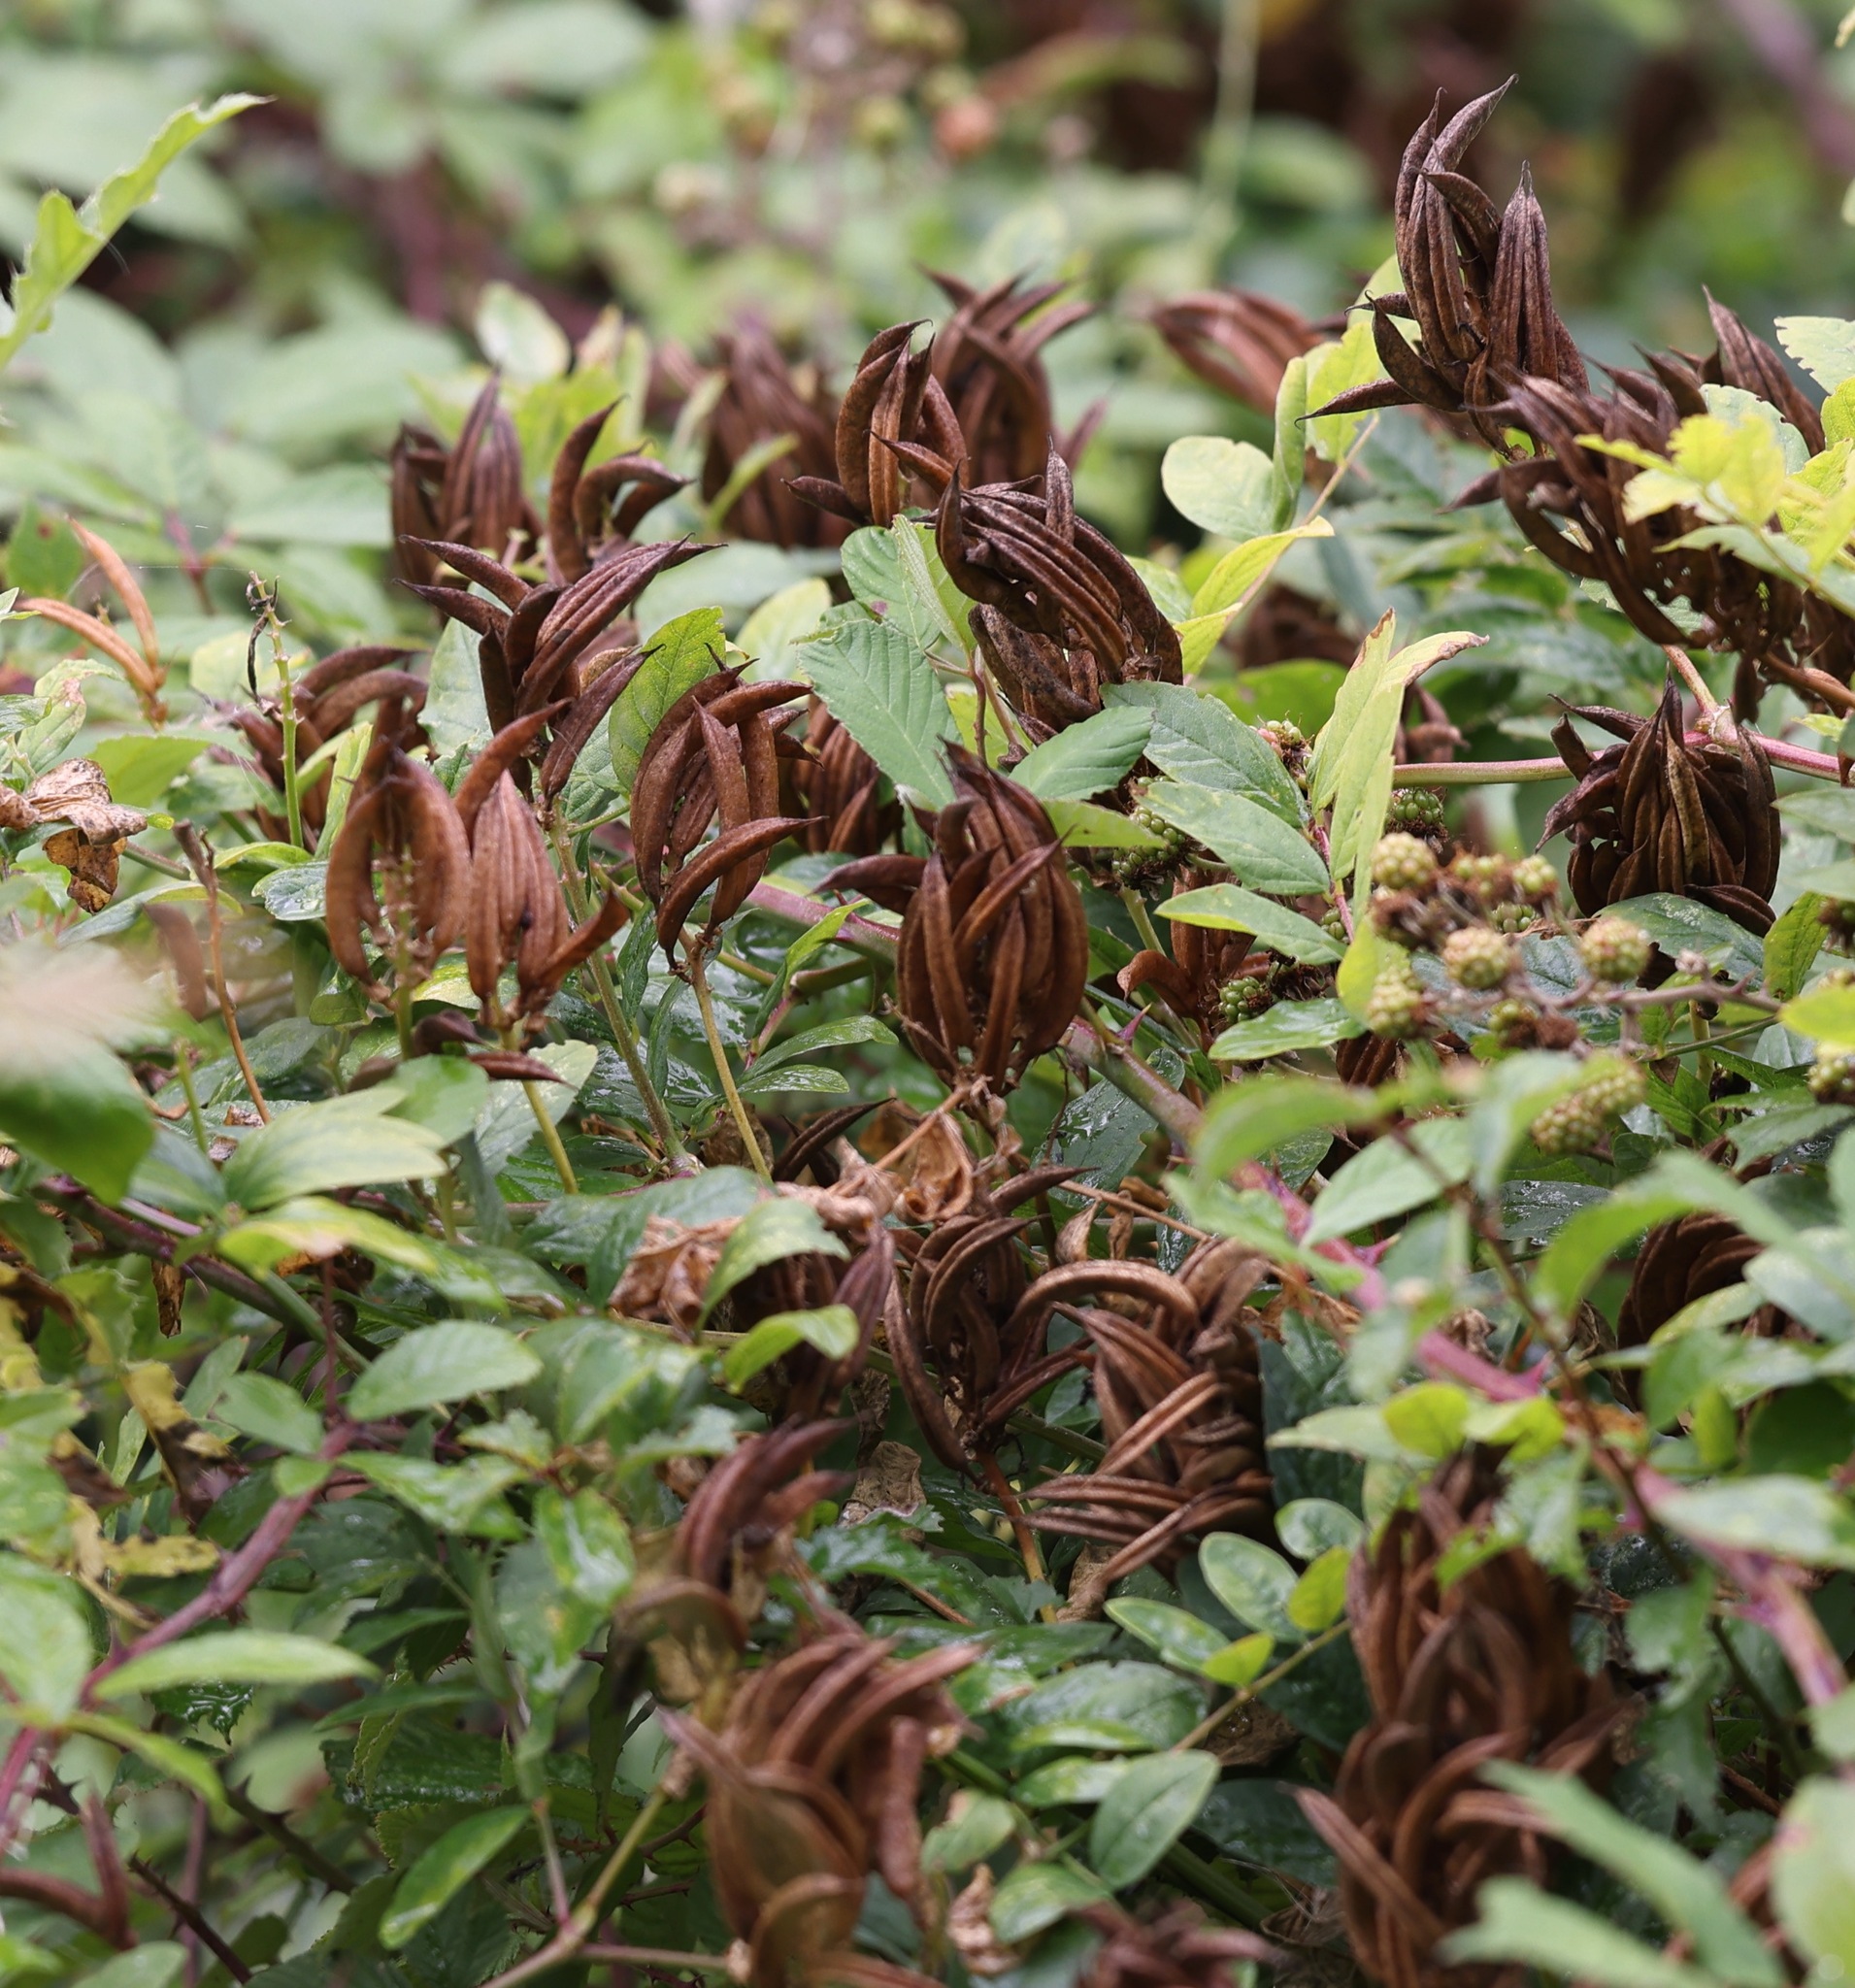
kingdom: Plantae
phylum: Tracheophyta
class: Magnoliopsida
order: Fabales
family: Fabaceae
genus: Astragalus
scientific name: Astragalus glycyphyllos
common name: Wild liquorice
